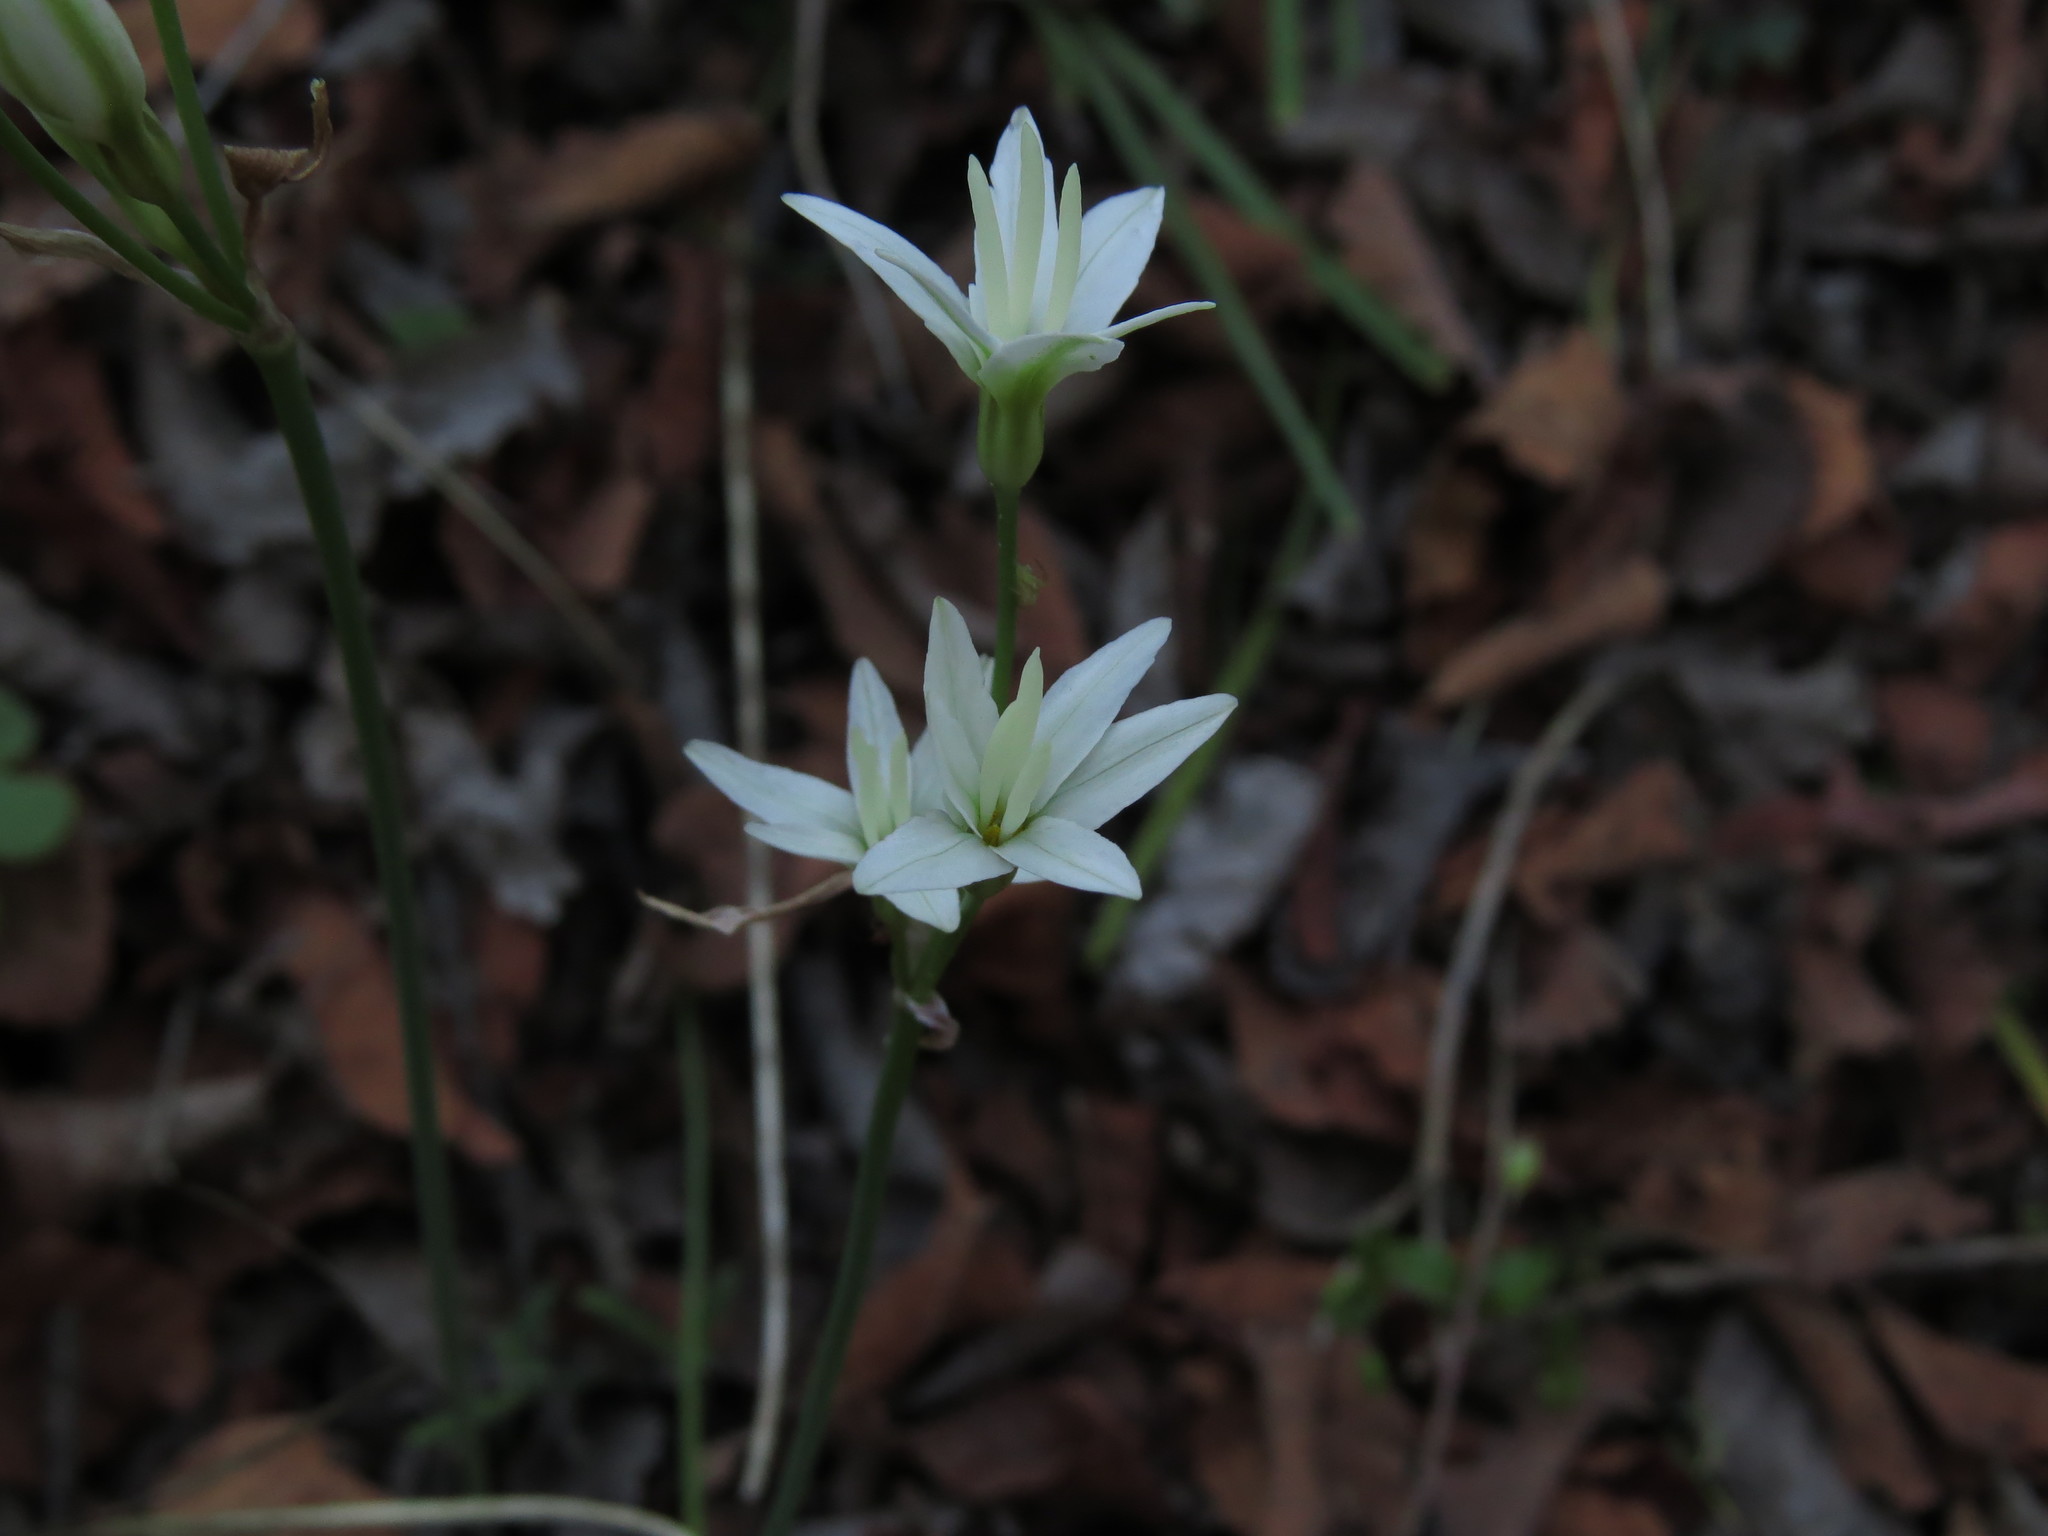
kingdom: Plantae
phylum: Tracheophyta
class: Liliopsida
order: Asparagales
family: Amaryllidaceae
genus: Leucocoryne
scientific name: Leucocoryne alliacea
